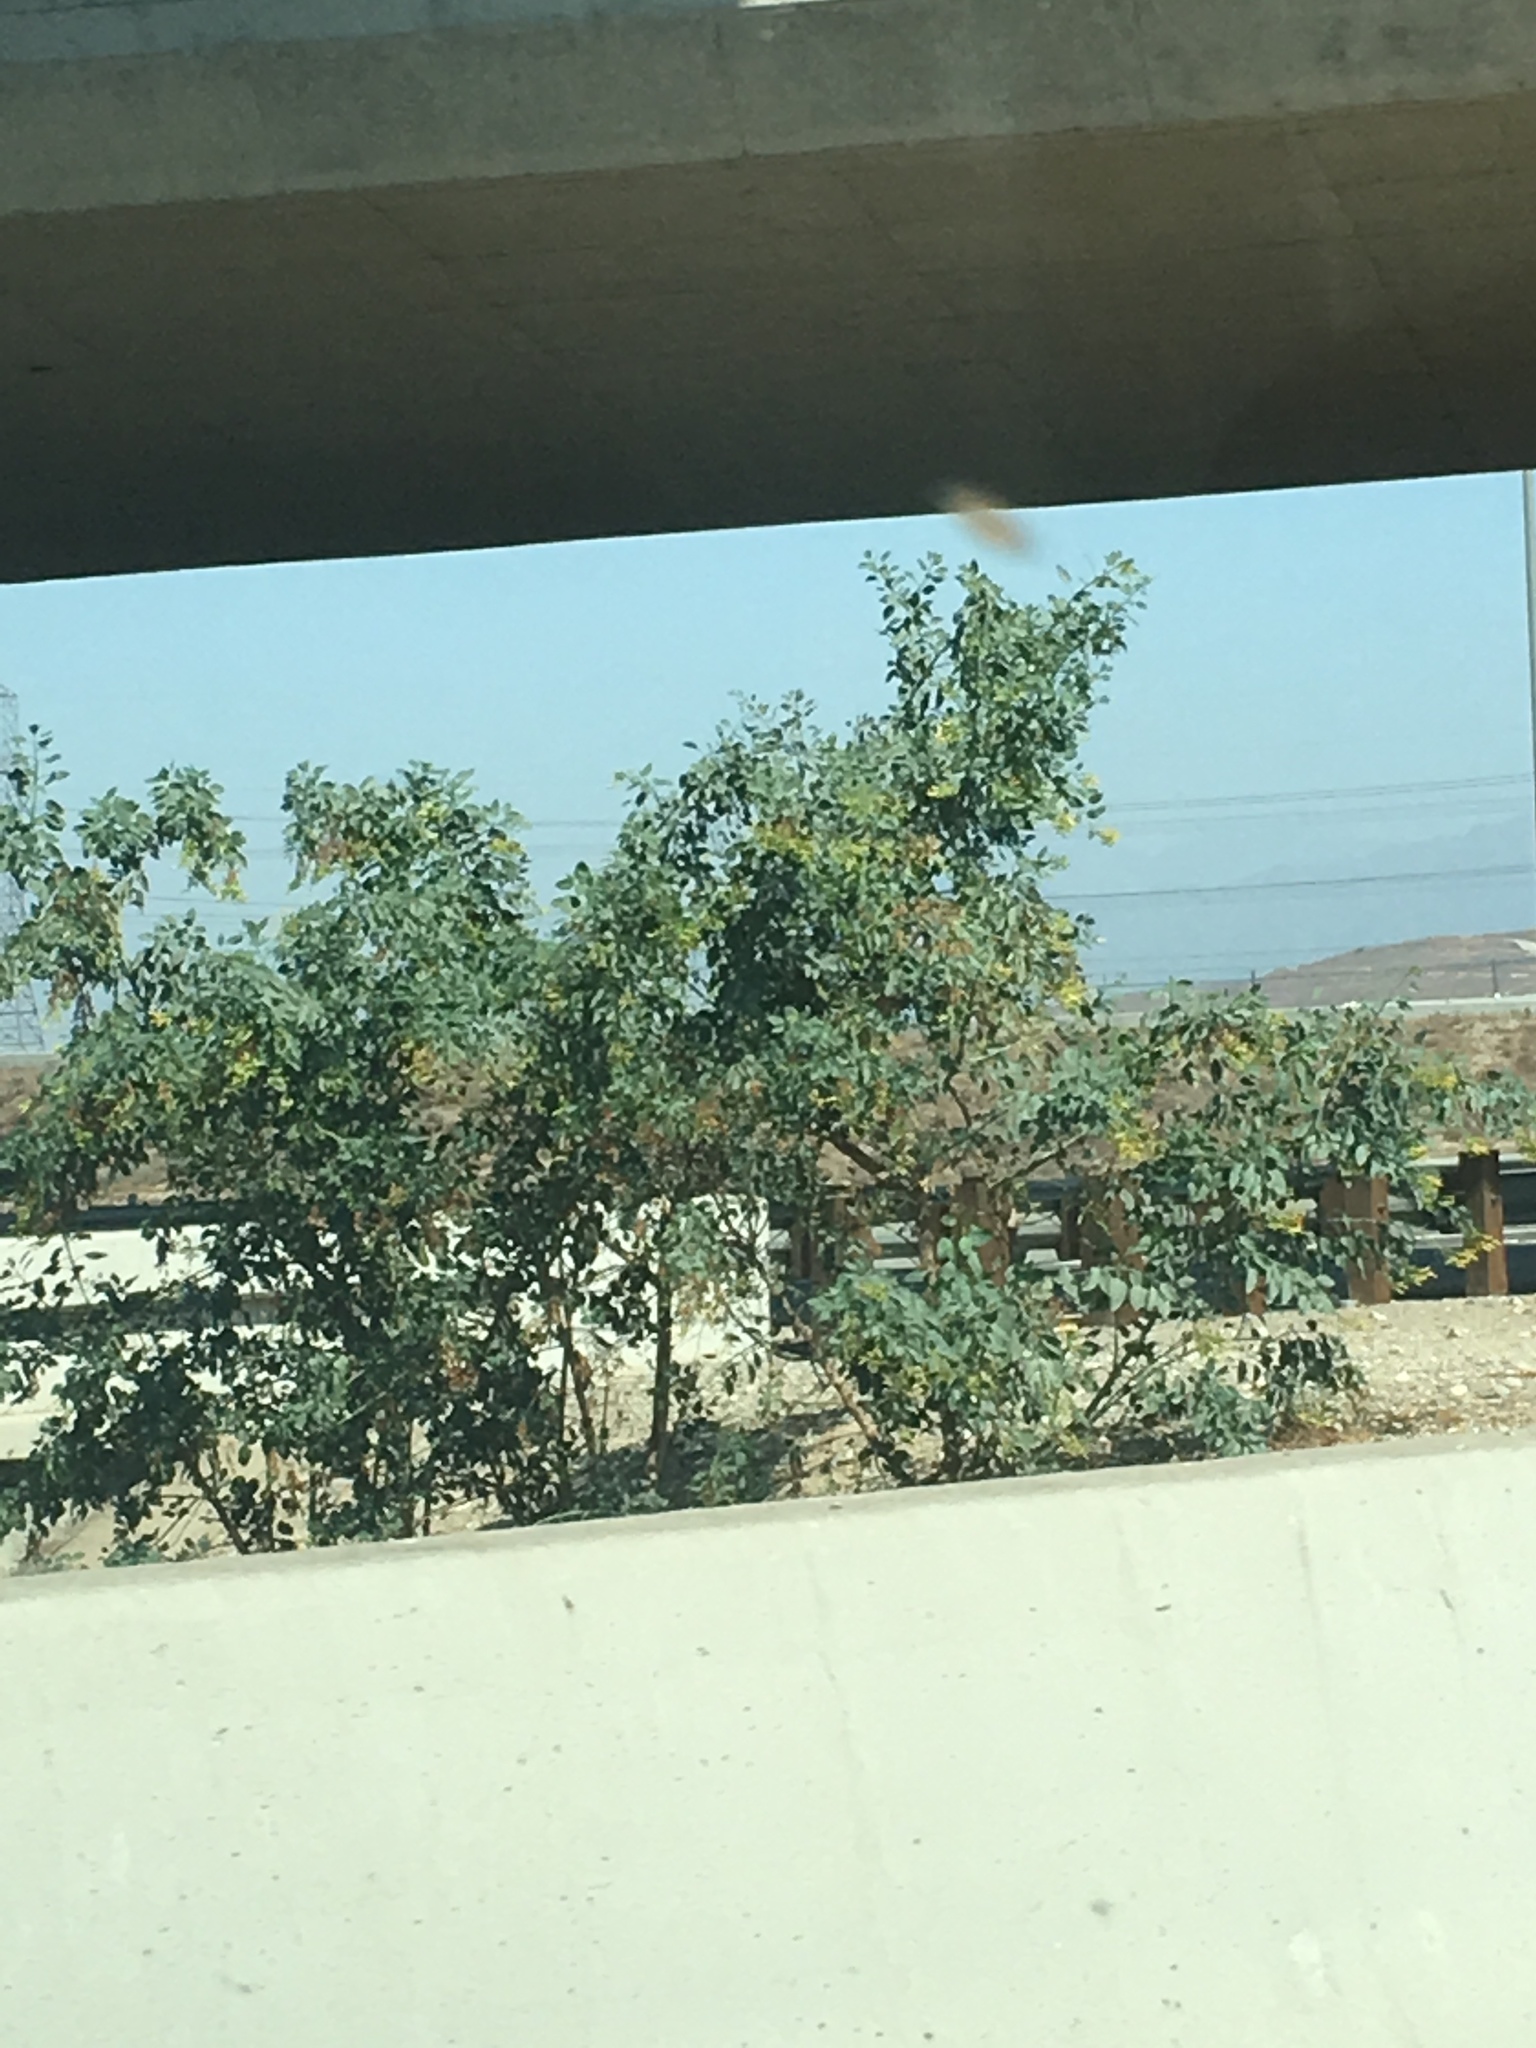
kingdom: Plantae
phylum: Tracheophyta
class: Magnoliopsida
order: Solanales
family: Solanaceae
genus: Nicotiana
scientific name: Nicotiana glauca
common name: Tree tobacco
